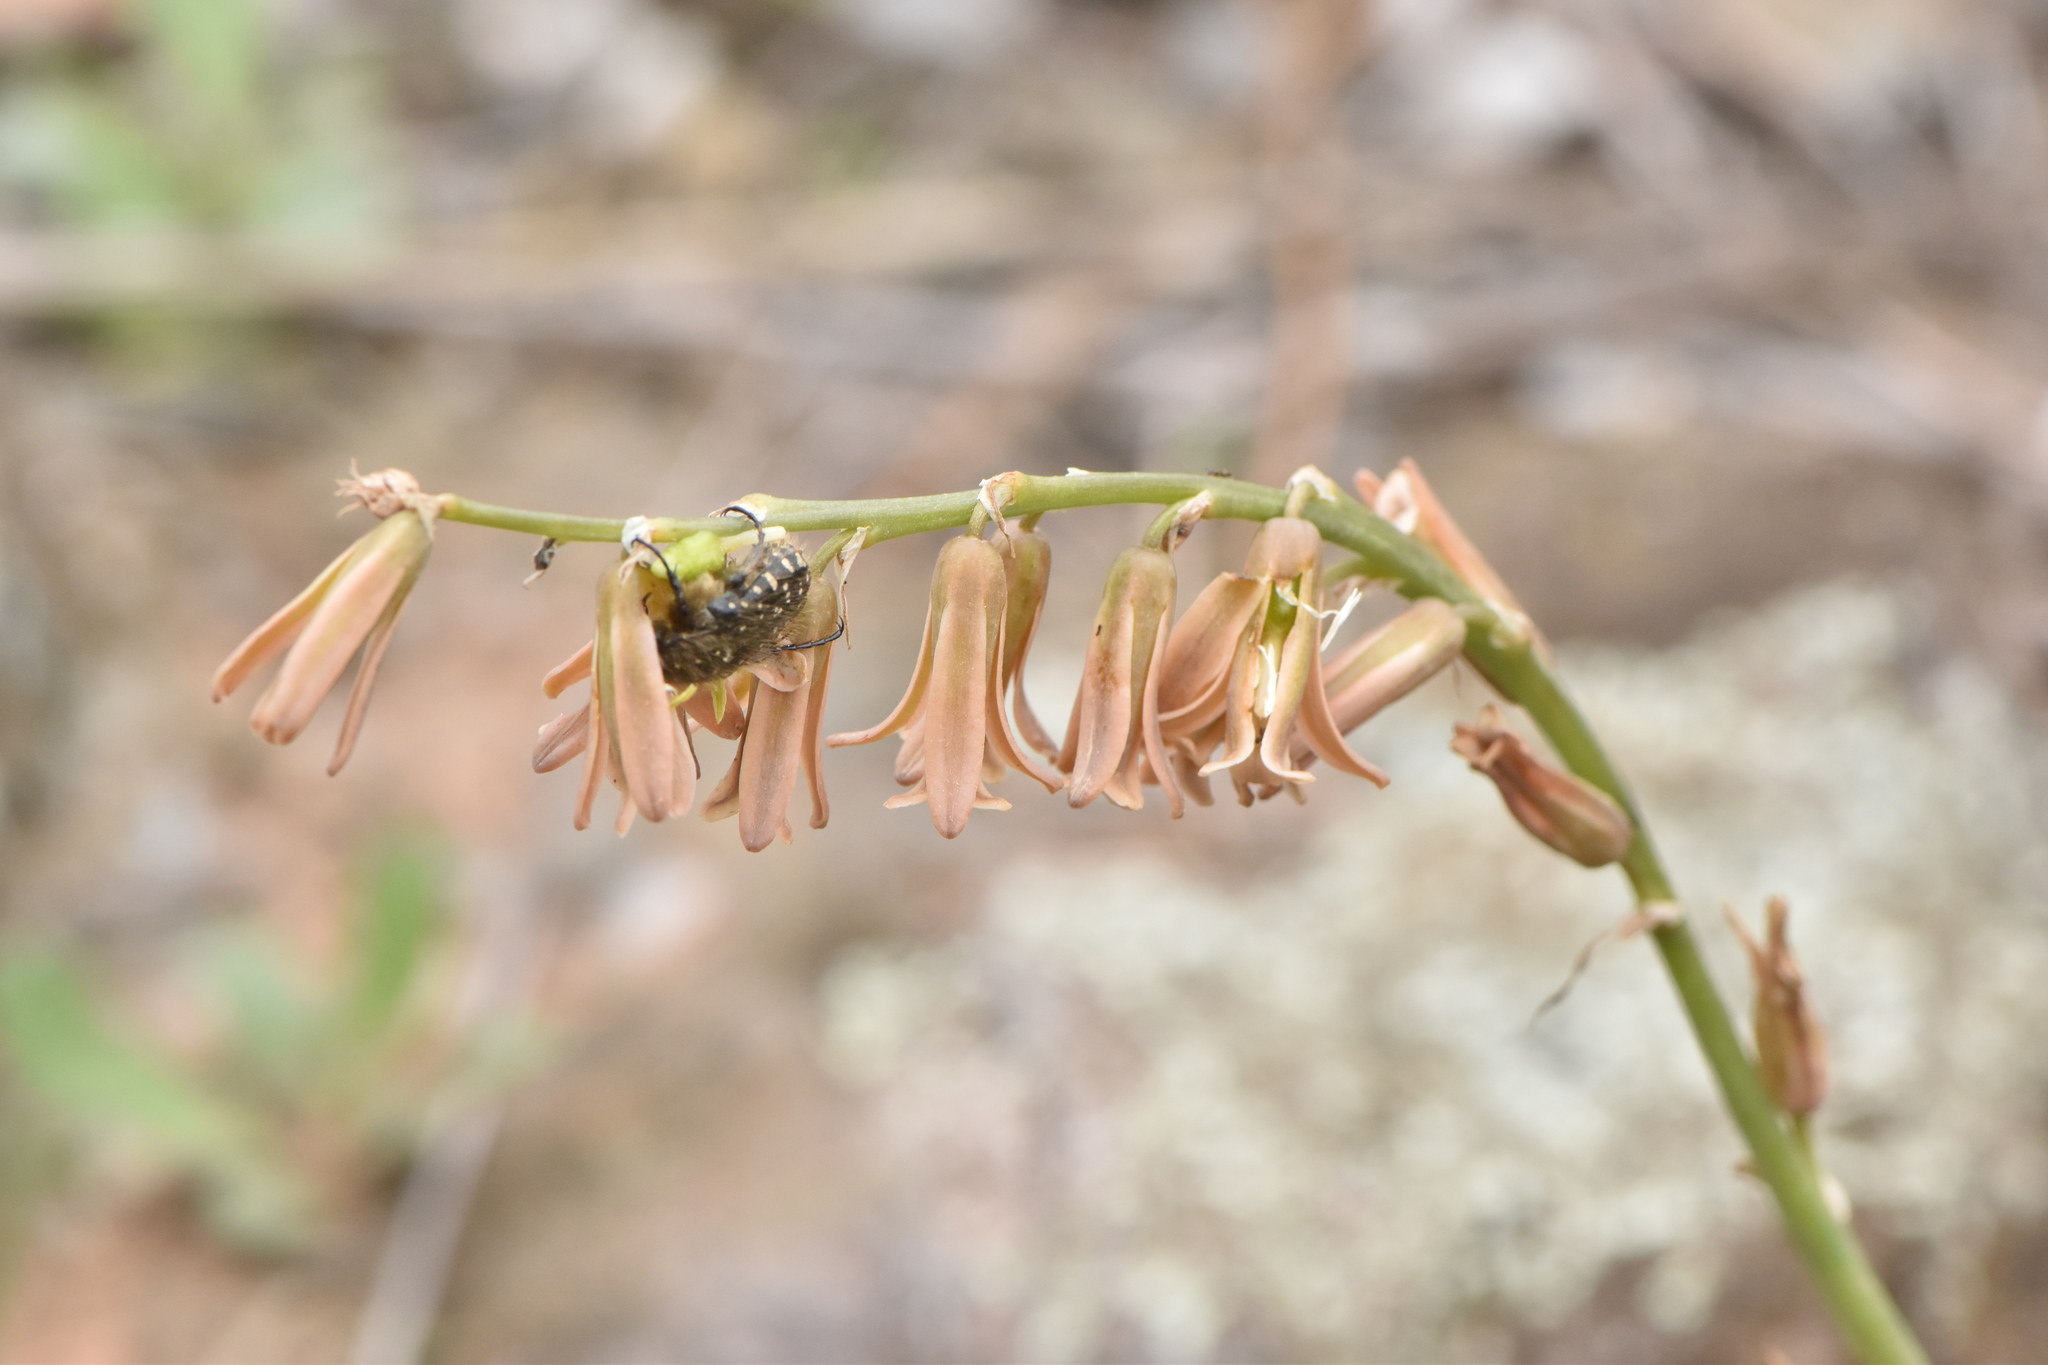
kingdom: Plantae
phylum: Tracheophyta
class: Liliopsida
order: Asparagales
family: Asparagaceae
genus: Dipcadi
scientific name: Dipcadi serotinum
